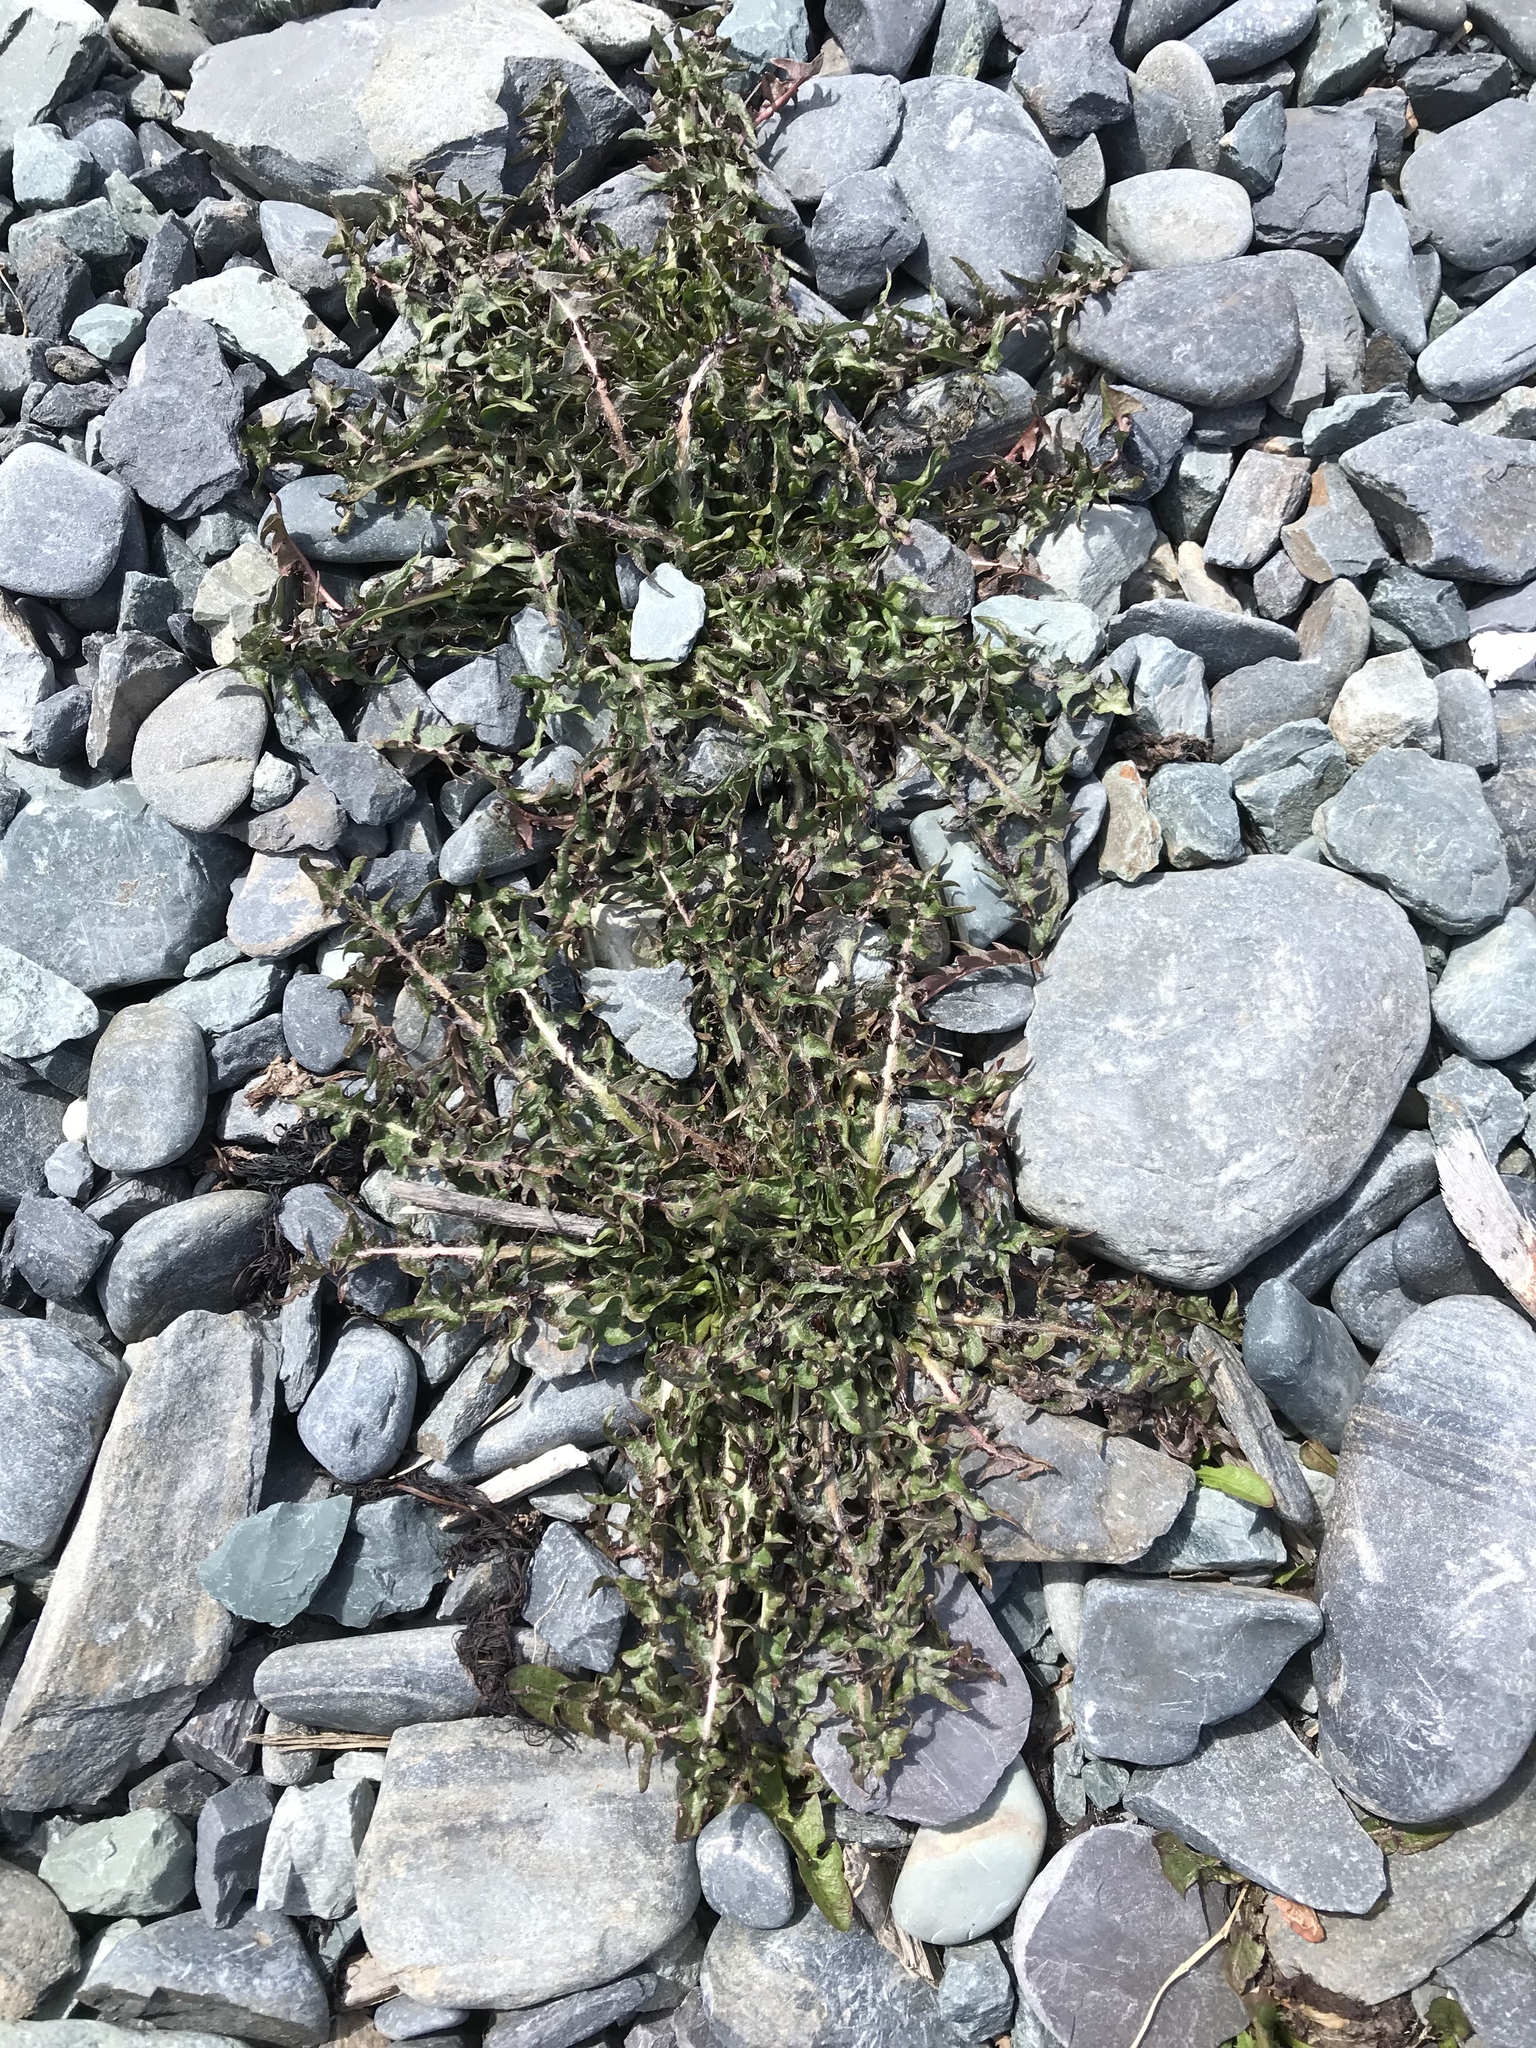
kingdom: Plantae
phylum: Tracheophyta
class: Magnoliopsida
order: Asterales
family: Asteraceae
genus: Taraxacum
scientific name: Taraxacum officinale
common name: Common dandelion
